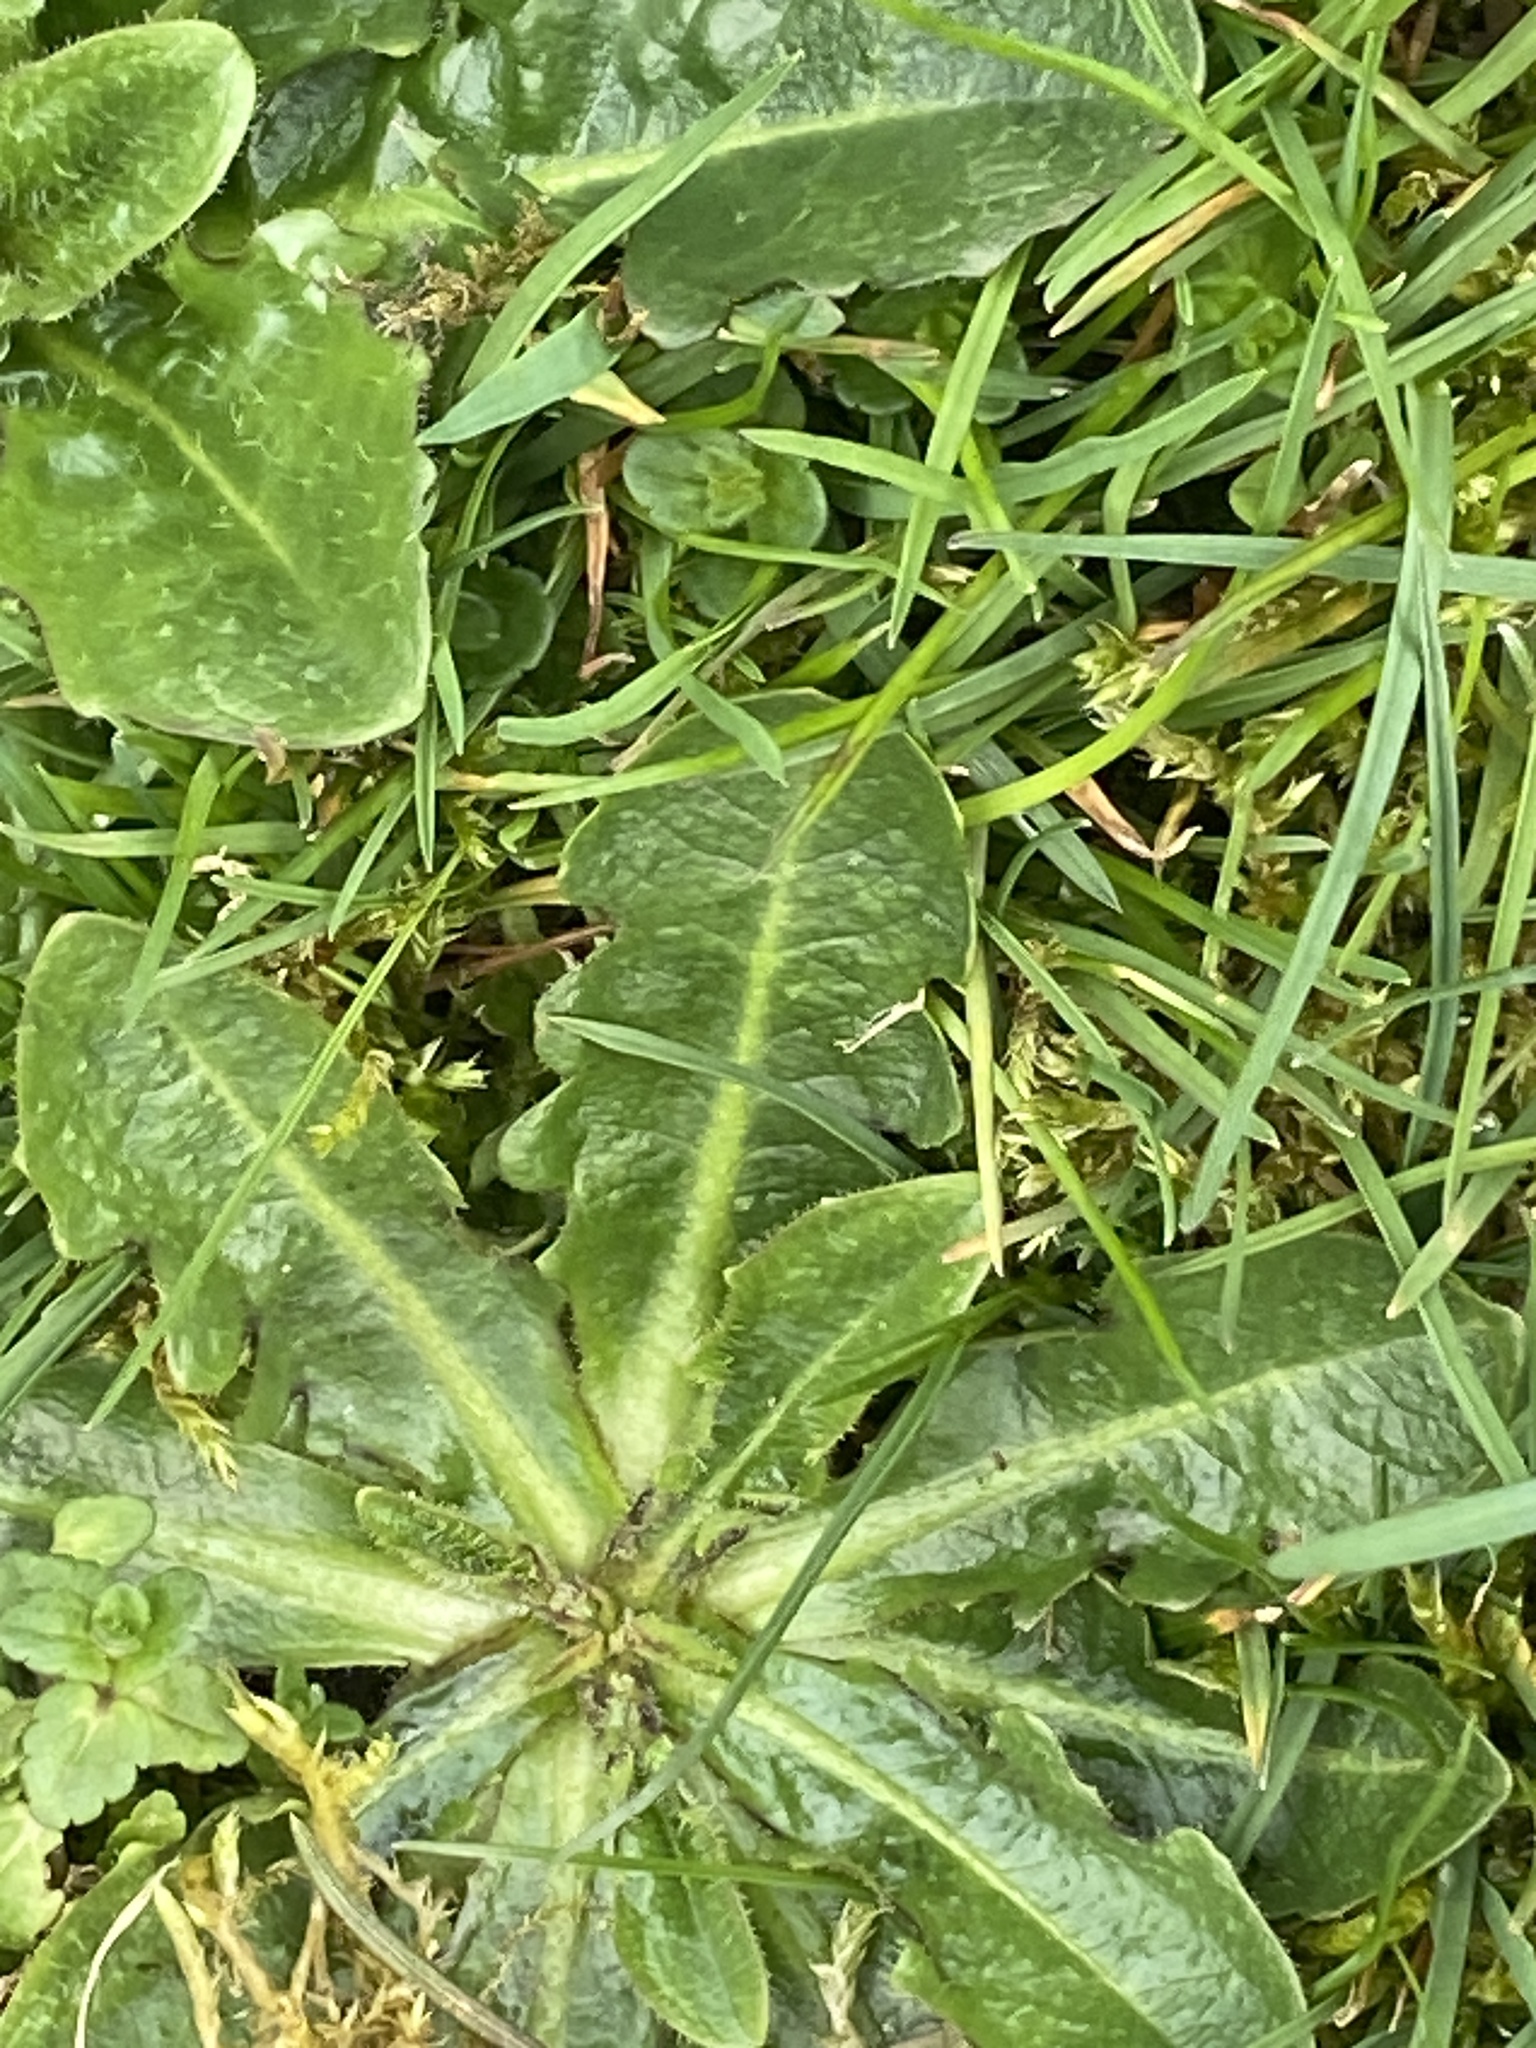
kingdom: Plantae
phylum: Tracheophyta
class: Magnoliopsida
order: Asterales
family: Asteraceae
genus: Hypochaeris
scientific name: Hypochaeris radicata
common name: Flatweed
